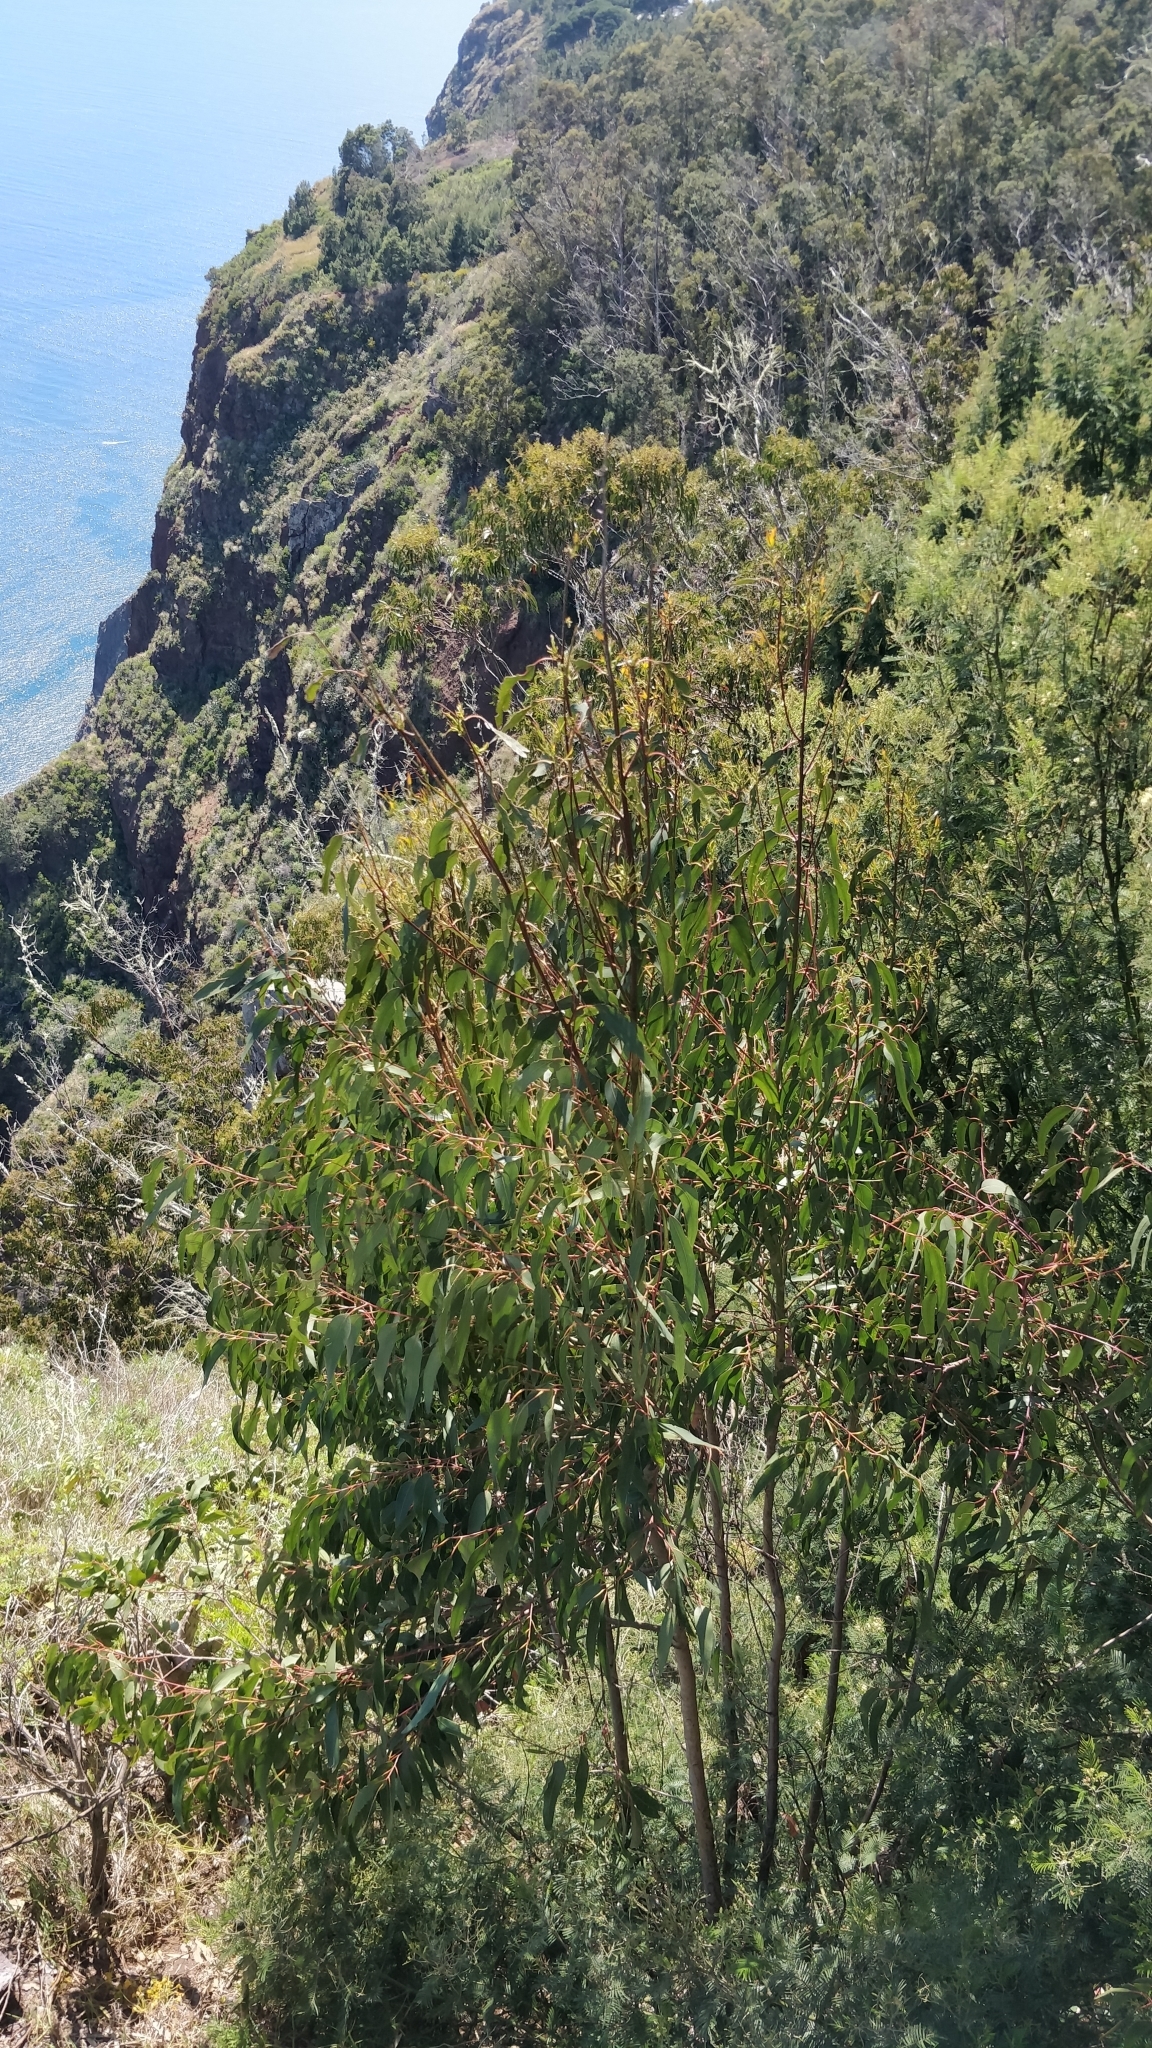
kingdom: Plantae
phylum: Tracheophyta
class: Magnoliopsida
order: Myrtales
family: Myrtaceae
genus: Eucalyptus
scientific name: Eucalyptus globulus
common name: Southern blue-gum
